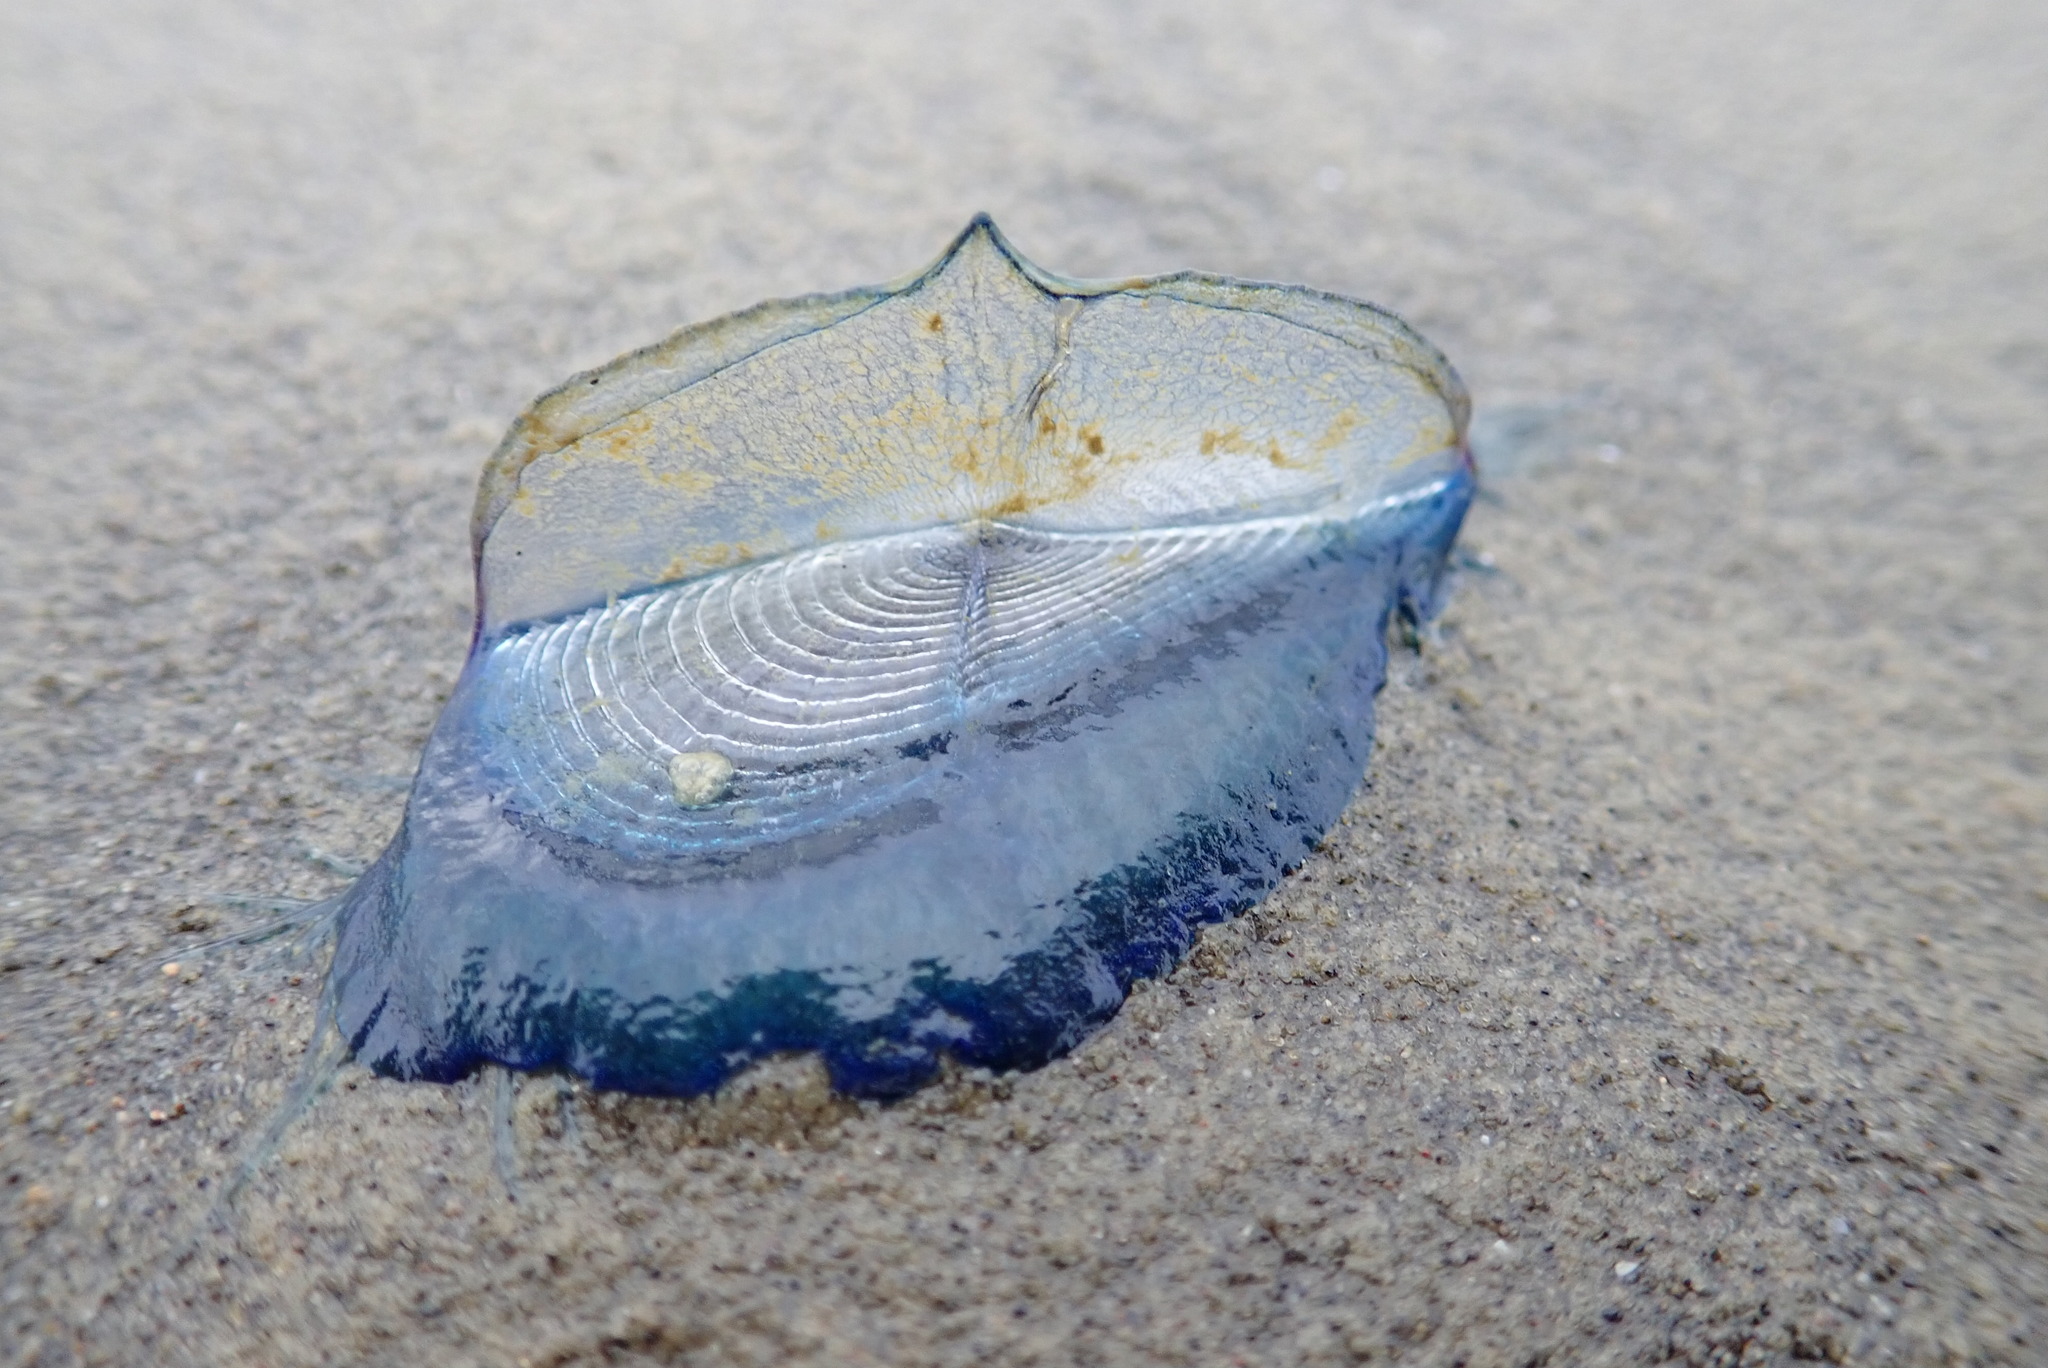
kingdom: Animalia
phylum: Cnidaria
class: Hydrozoa
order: Anthoathecata
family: Porpitidae
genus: Velella
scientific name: Velella velella
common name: By-the-wind-sailor
